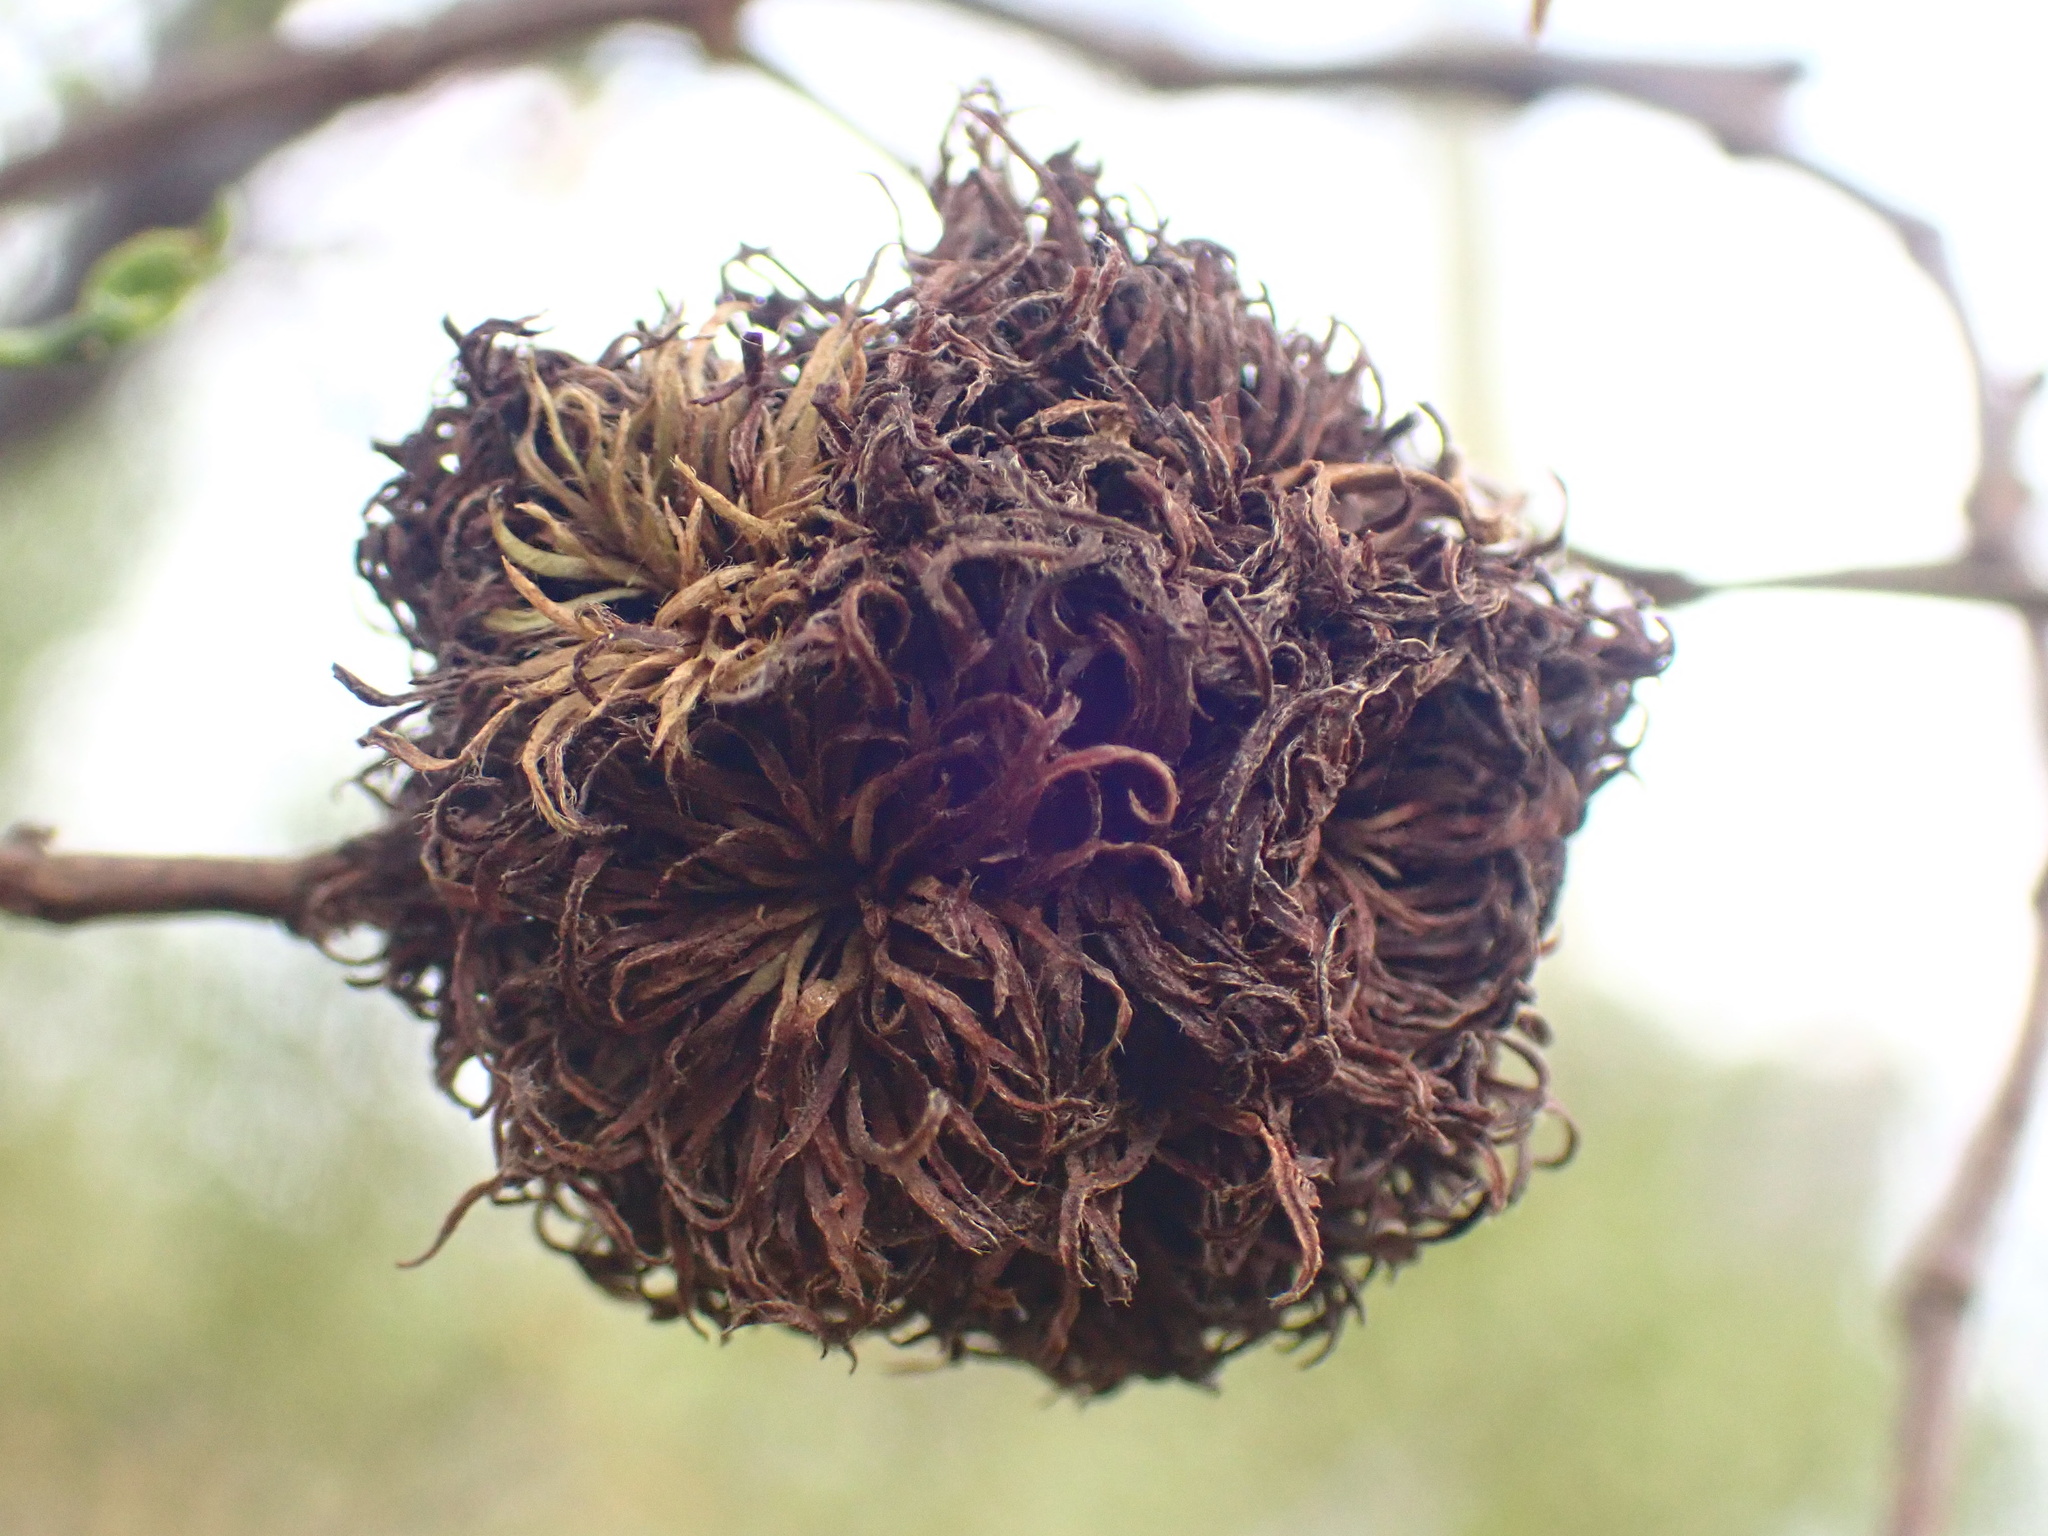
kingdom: Animalia
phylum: Arthropoda
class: Insecta
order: Diptera
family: Cecidomyiidae
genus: Asphondylia
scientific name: Asphondylia auripila
